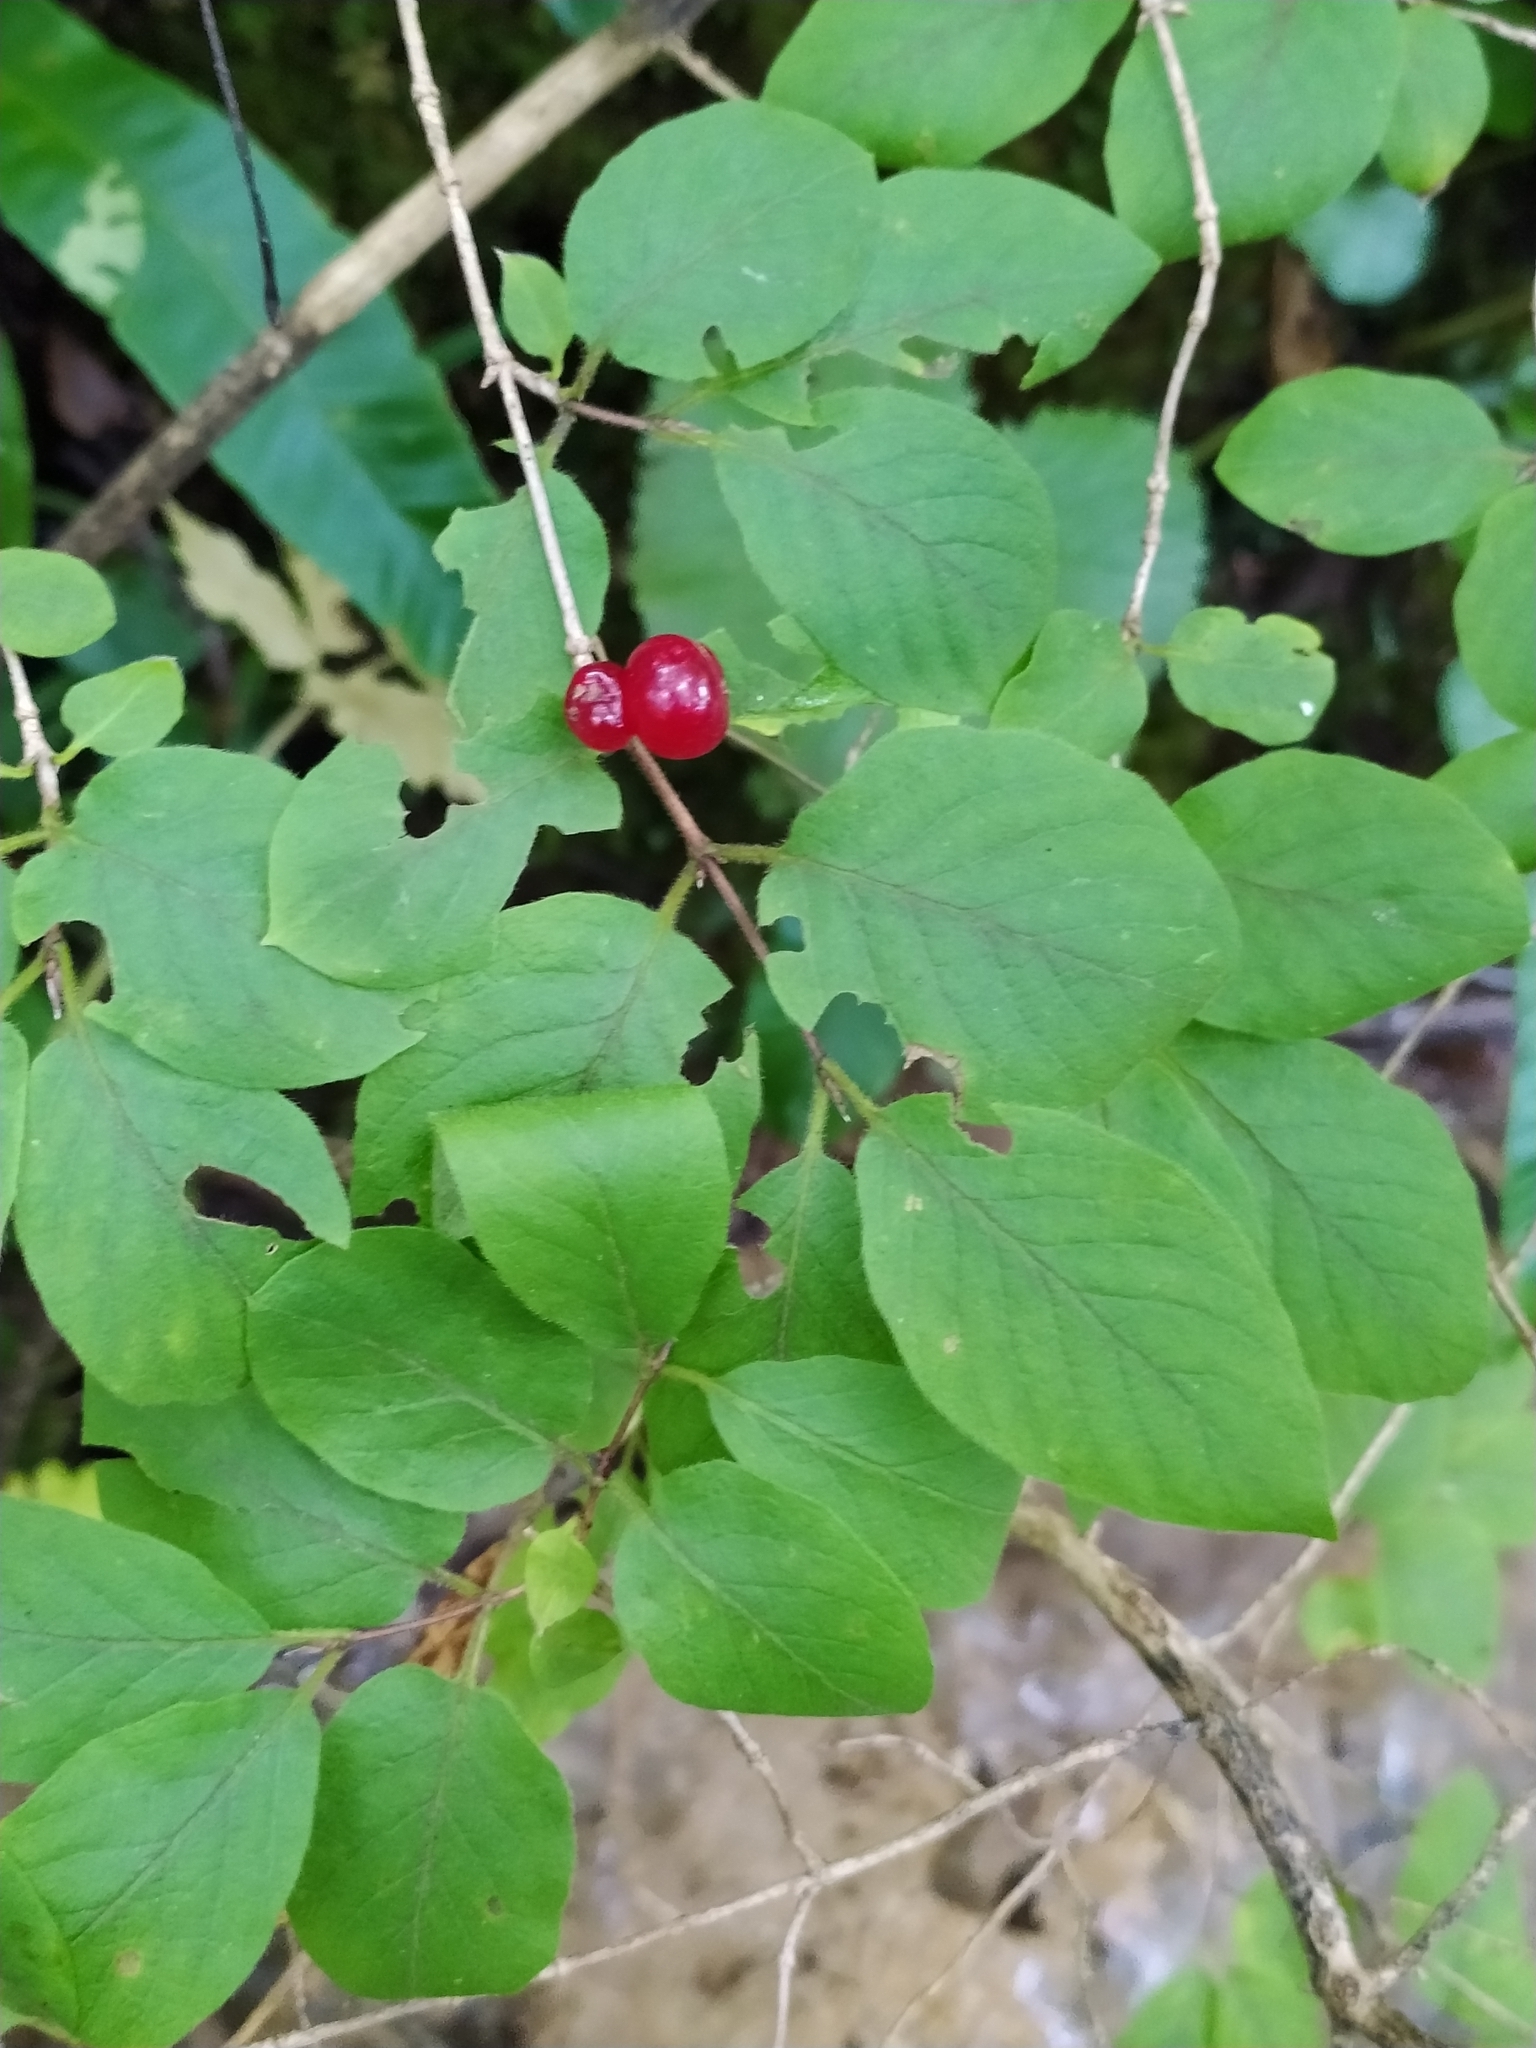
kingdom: Plantae
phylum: Tracheophyta
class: Magnoliopsida
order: Dipsacales
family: Caprifoliaceae
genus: Lonicera
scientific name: Lonicera xylosteum
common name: Fly honeysuckle
